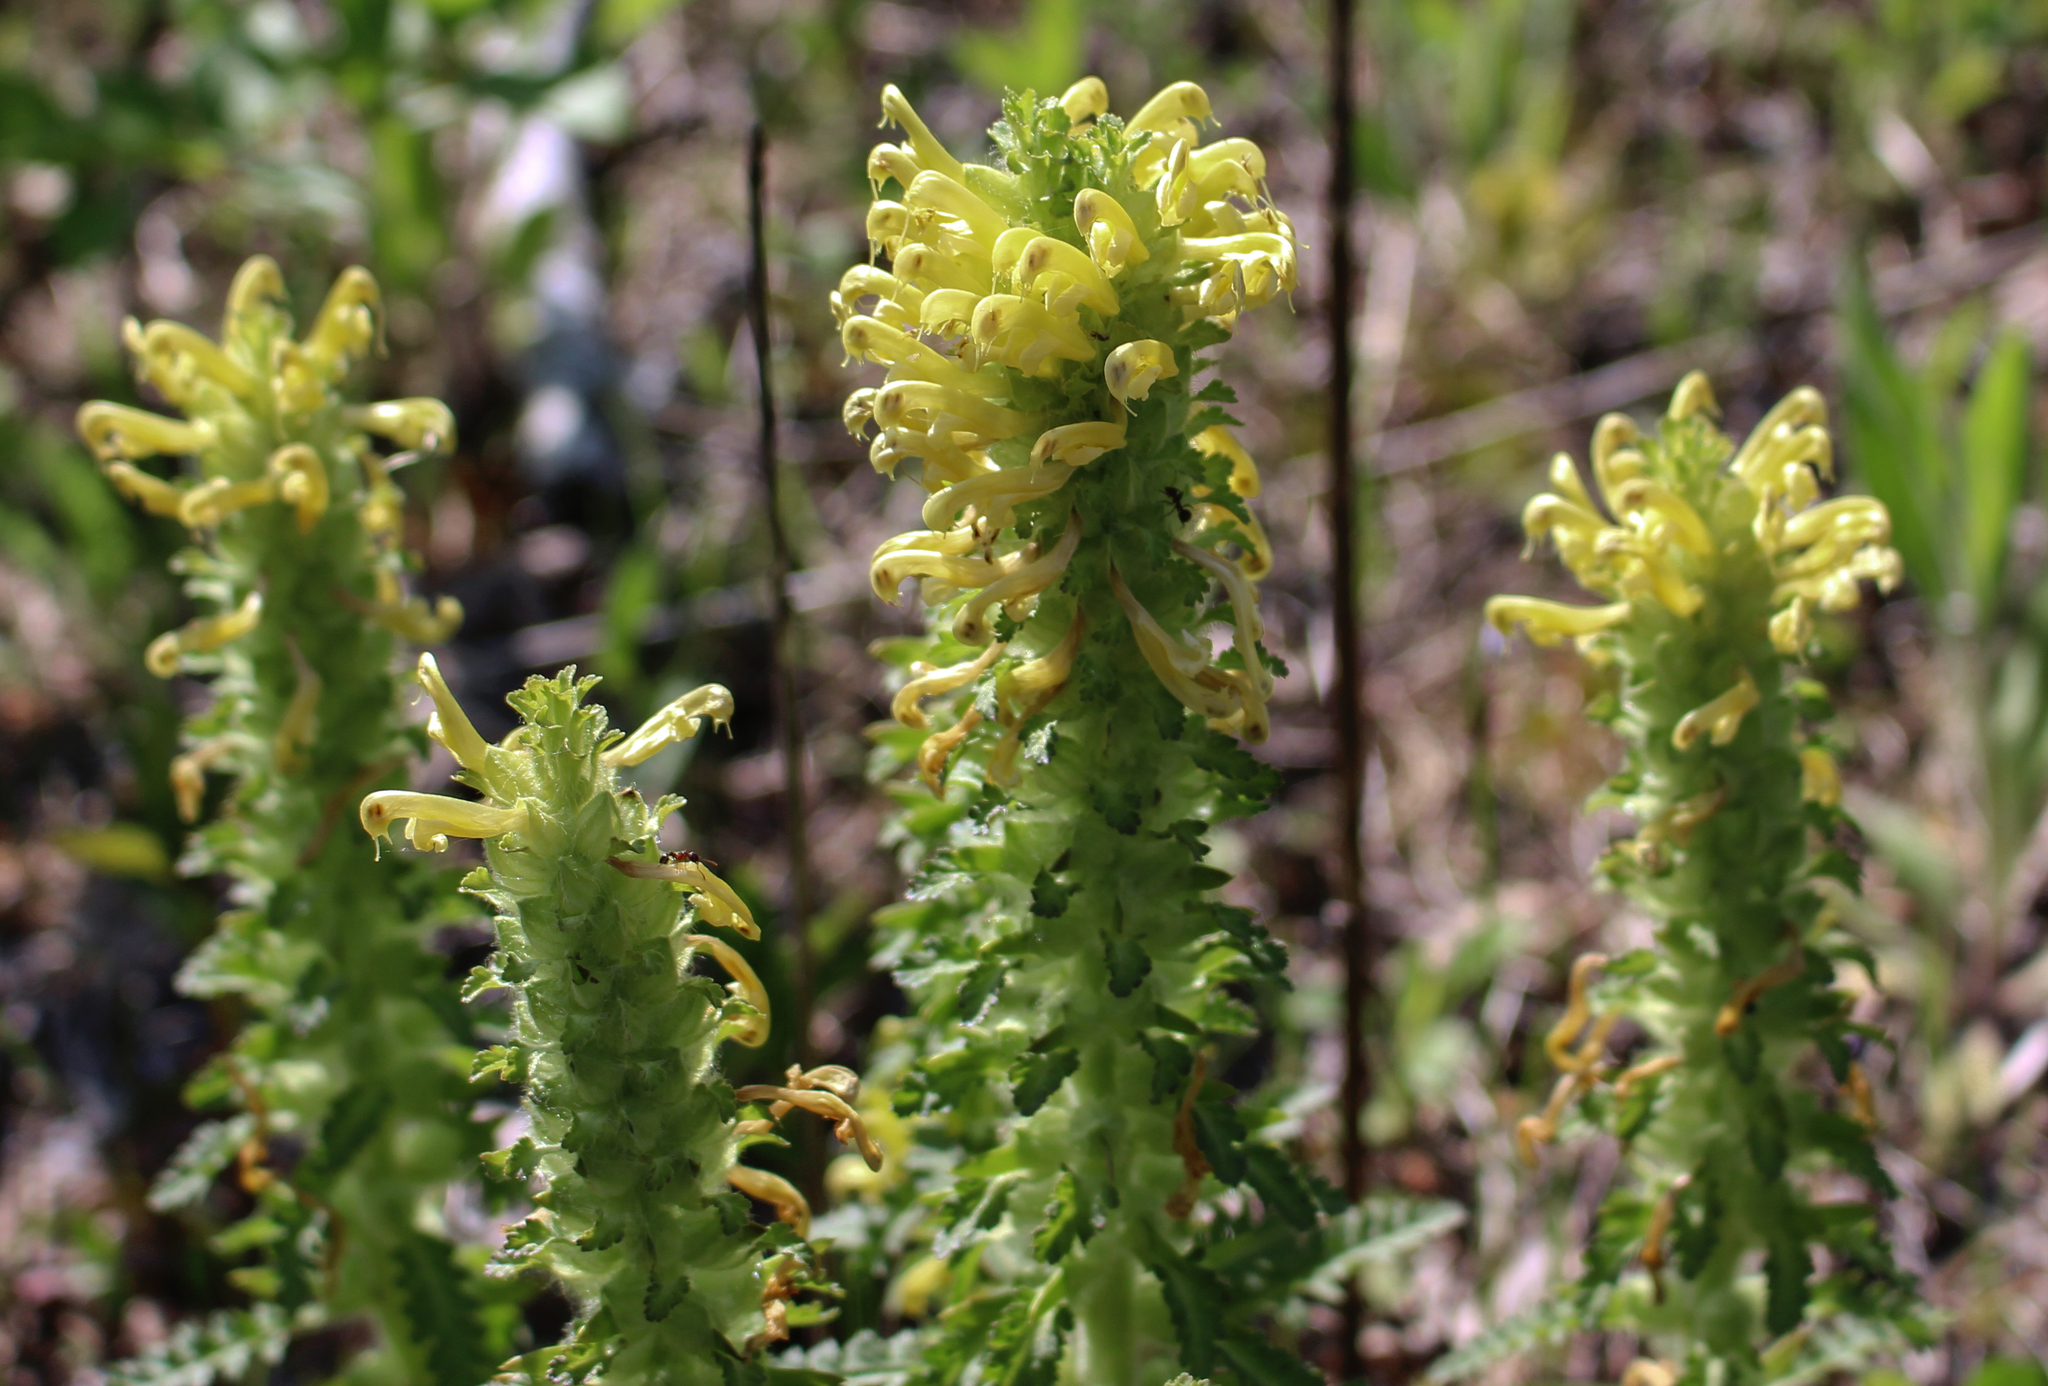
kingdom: Plantae
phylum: Tracheophyta
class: Magnoliopsida
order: Lamiales
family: Orobanchaceae
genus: Pedicularis
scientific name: Pedicularis canadensis
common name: Early lousewort
